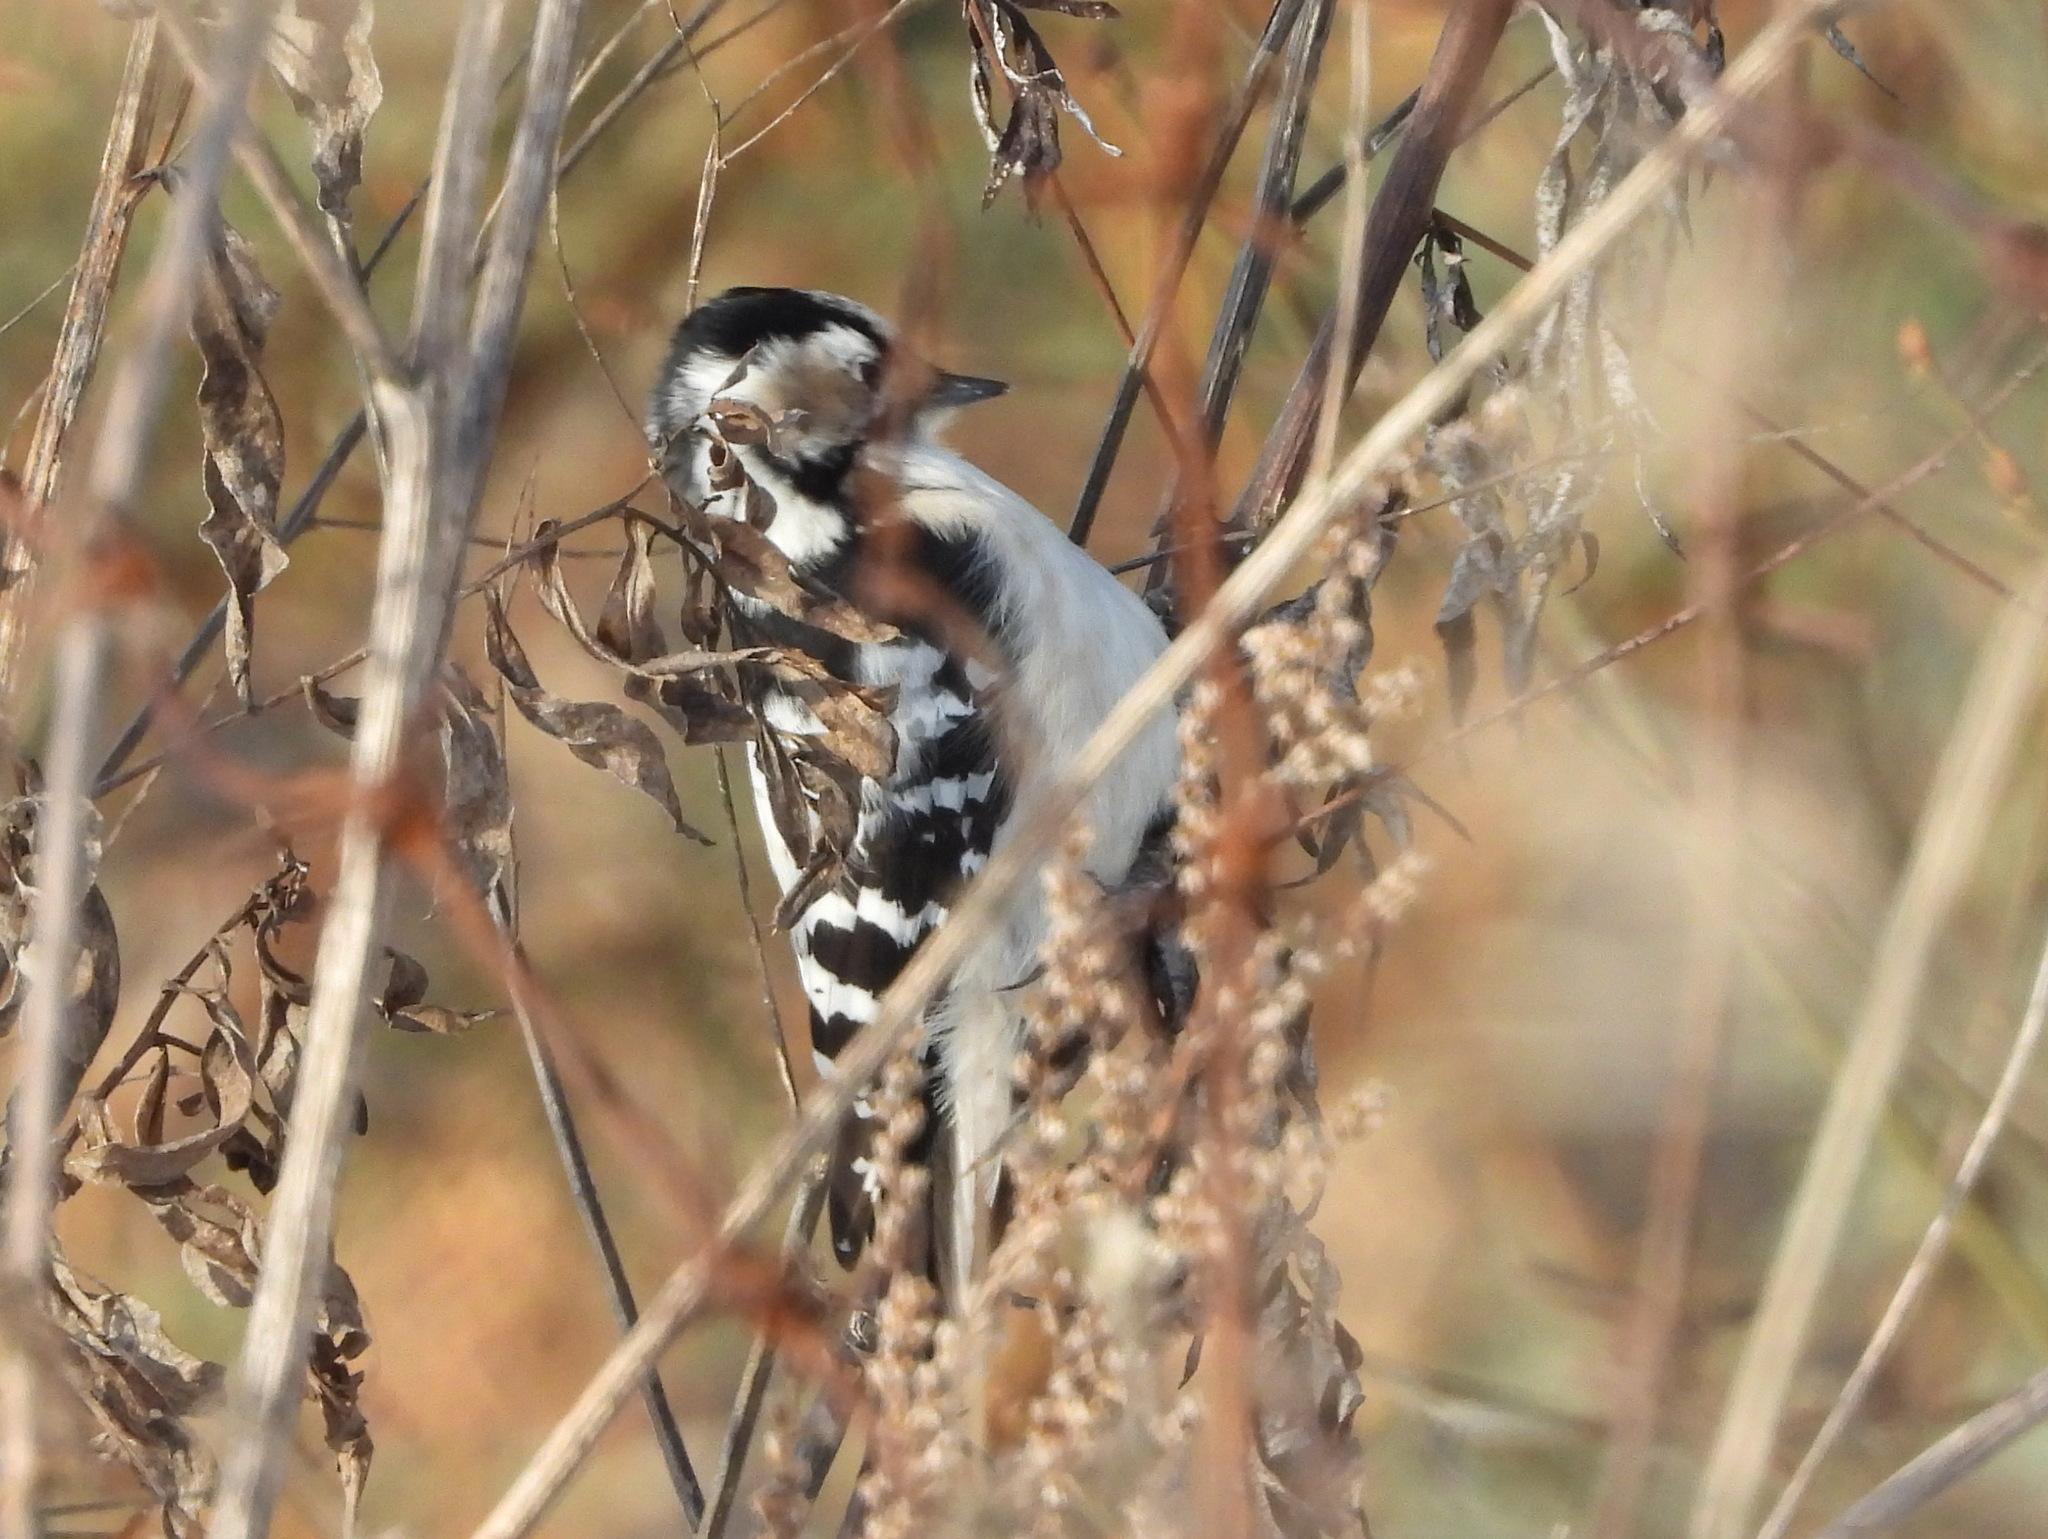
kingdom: Animalia
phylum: Chordata
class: Aves
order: Piciformes
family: Picidae
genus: Dryobates
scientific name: Dryobates minor
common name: Lesser spotted woodpecker
